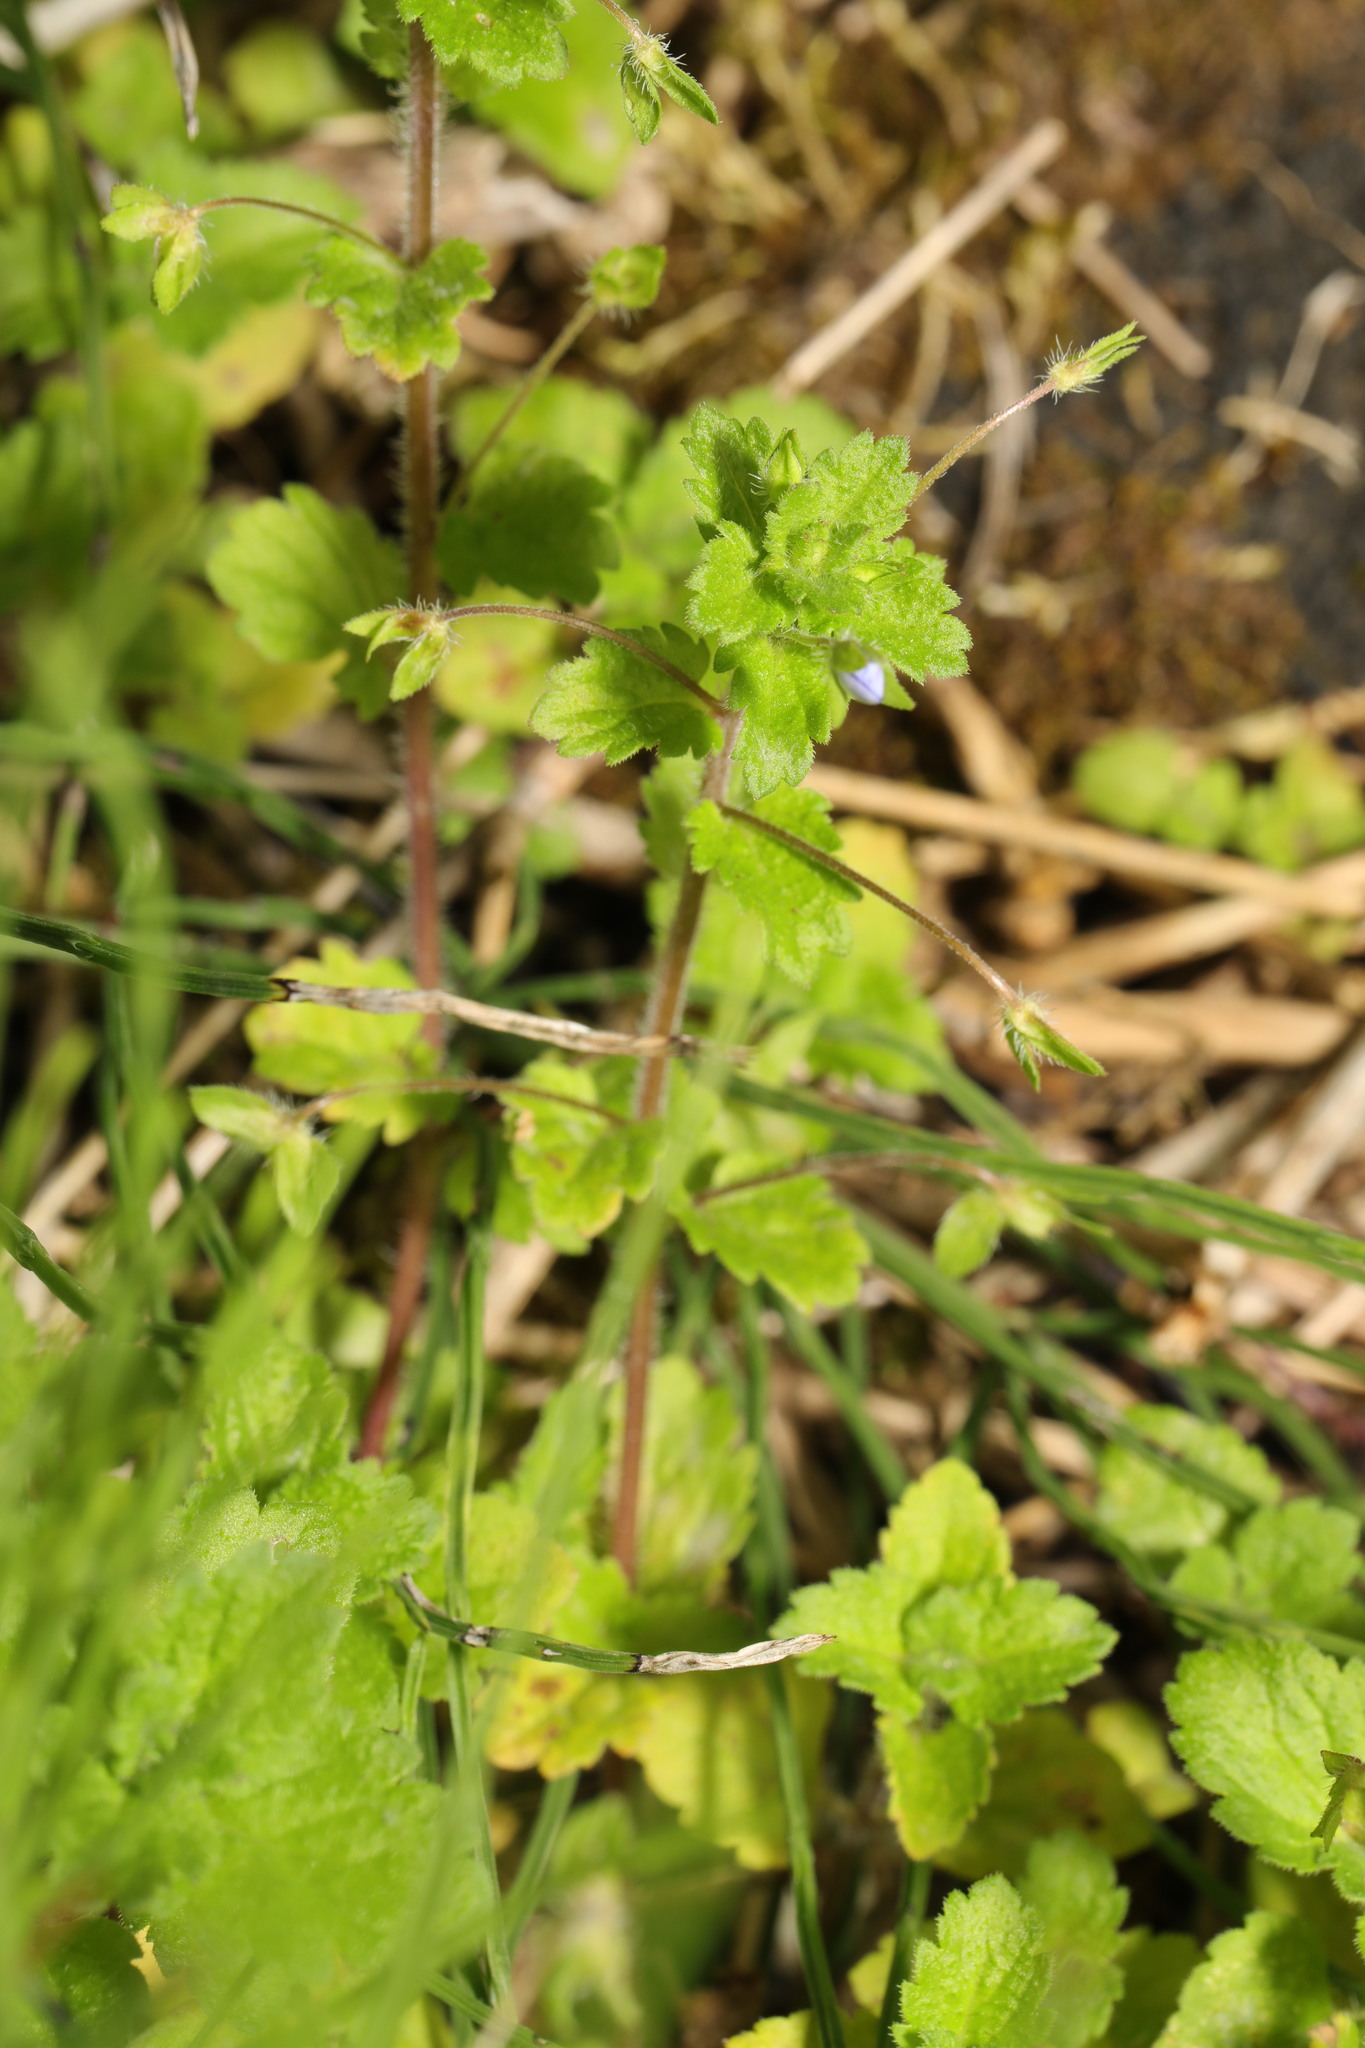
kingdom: Plantae
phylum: Tracheophyta
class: Magnoliopsida
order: Lamiales
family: Plantaginaceae
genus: Veronica
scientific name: Veronica persica
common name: Common field-speedwell
